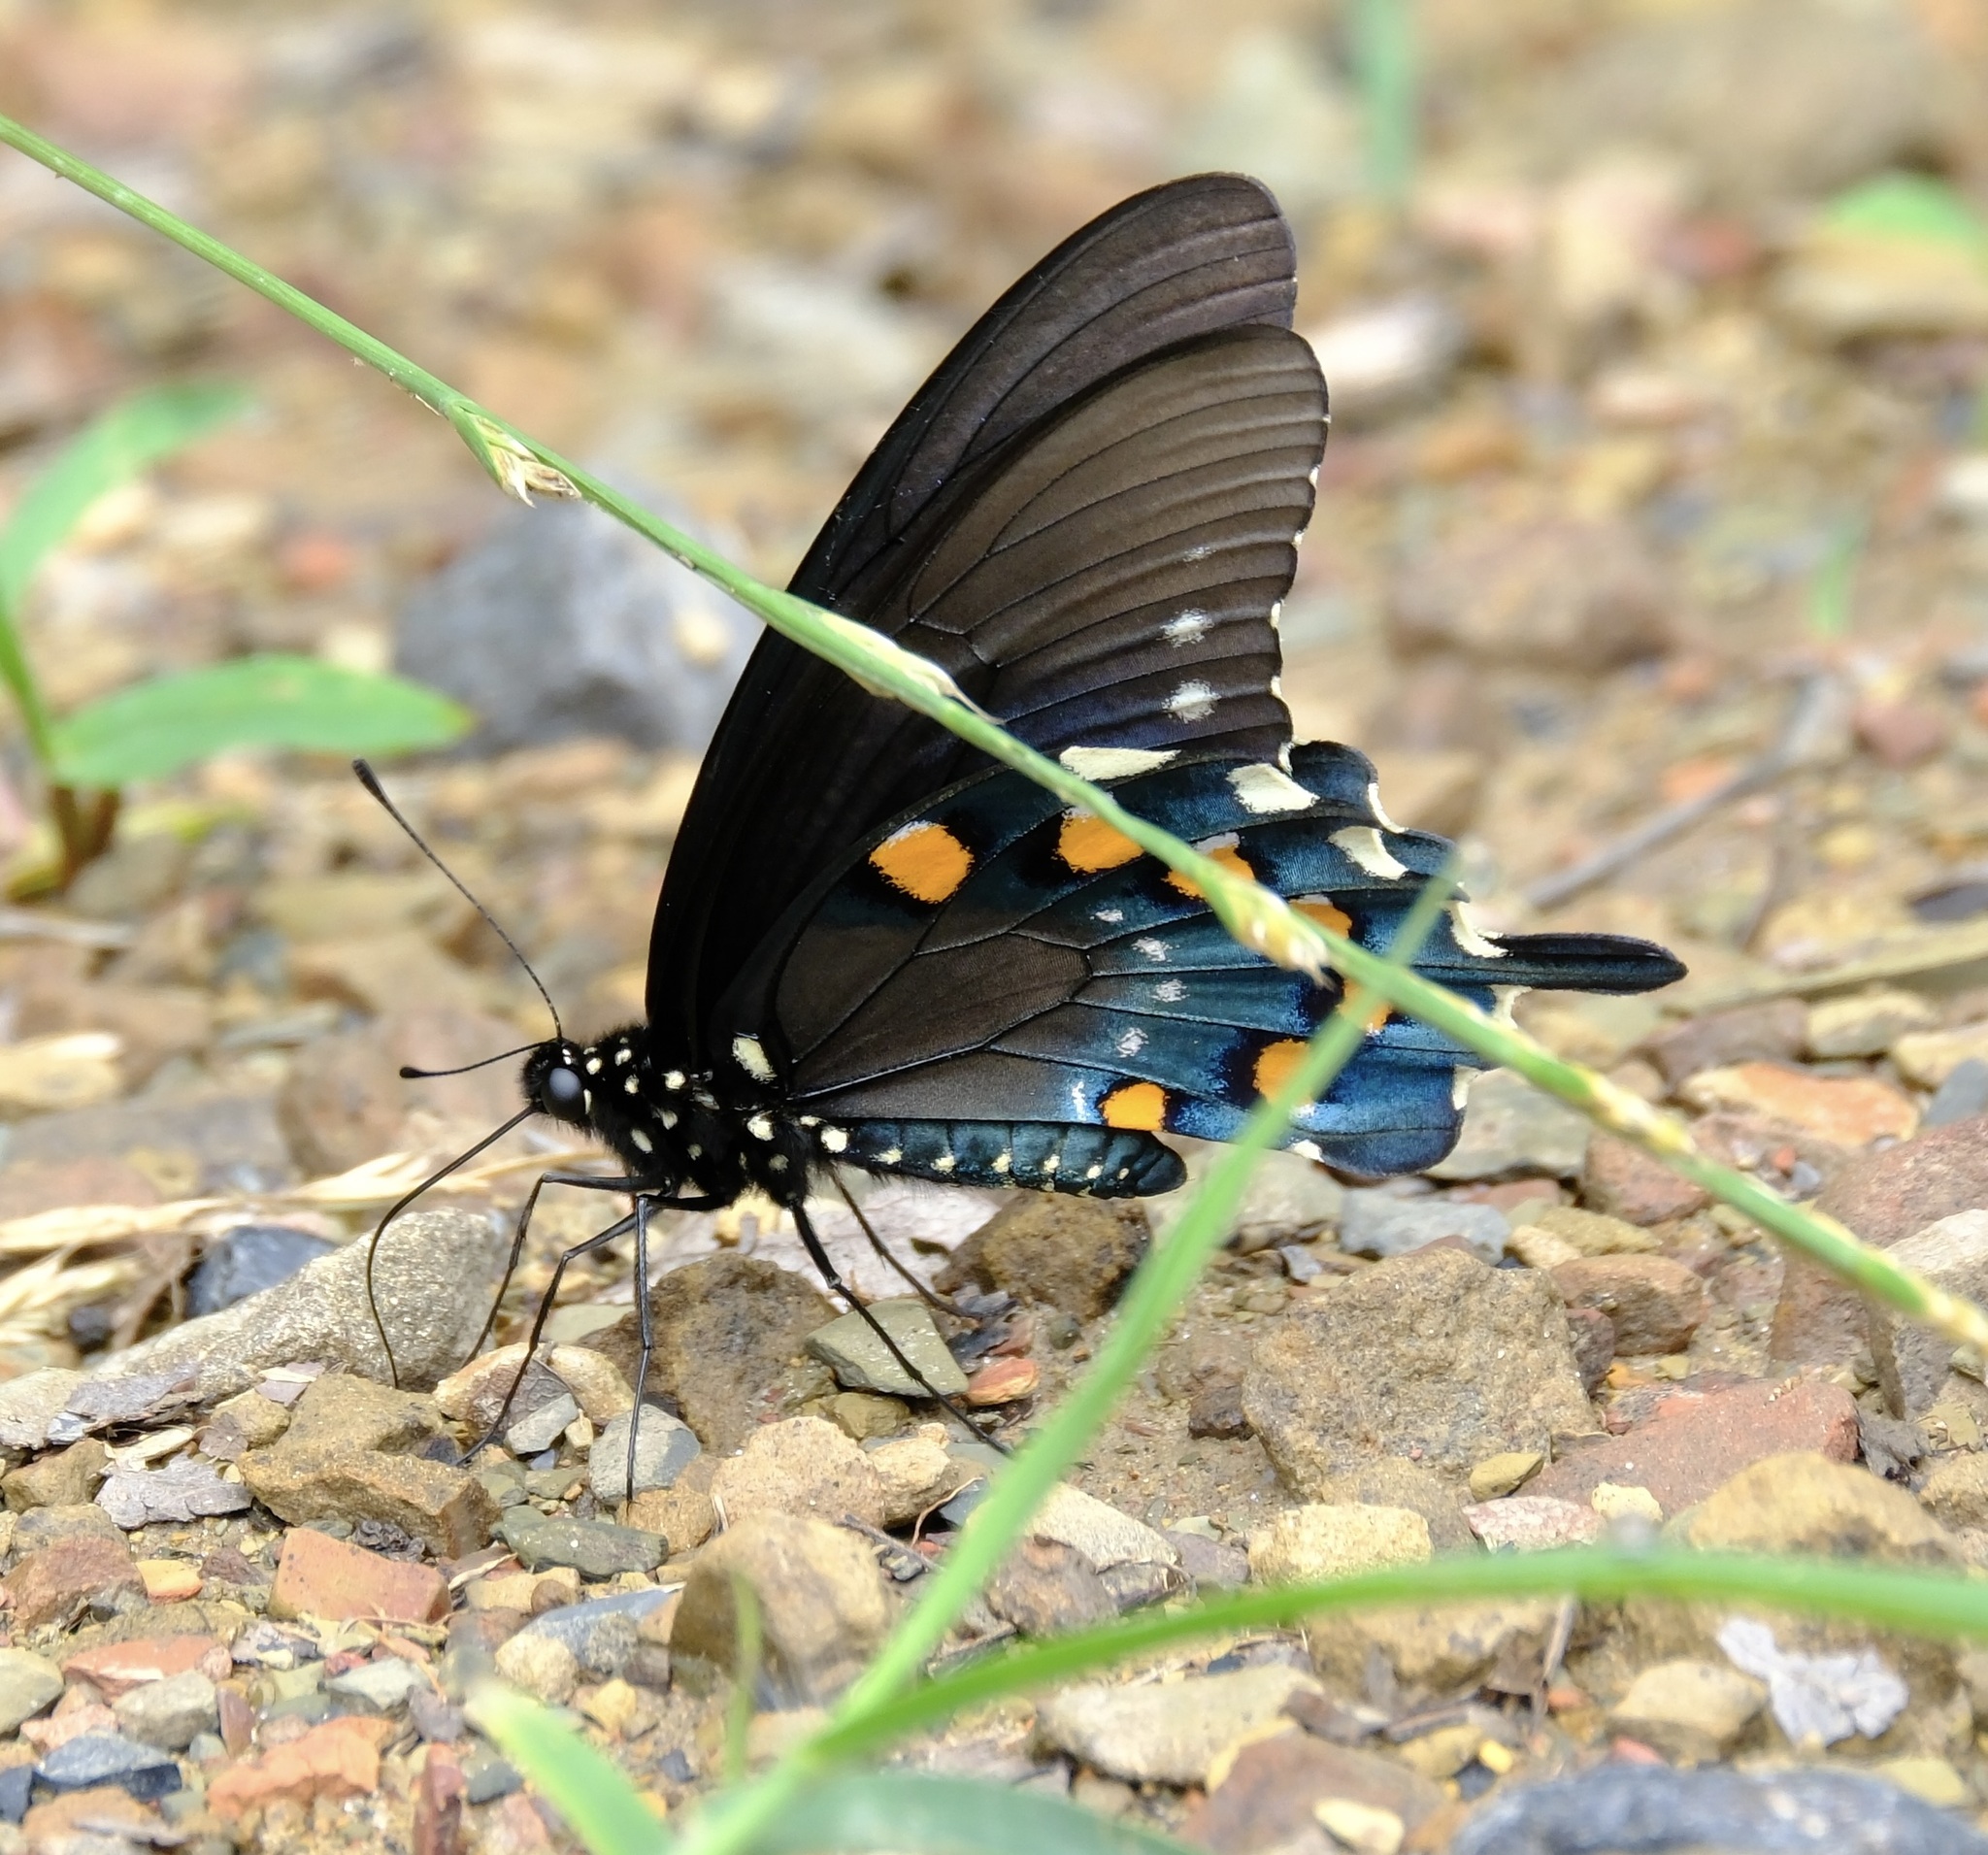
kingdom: Animalia
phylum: Arthropoda
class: Insecta
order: Lepidoptera
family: Papilionidae
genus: Battus
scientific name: Battus philenor
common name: Pipevine swallowtail
